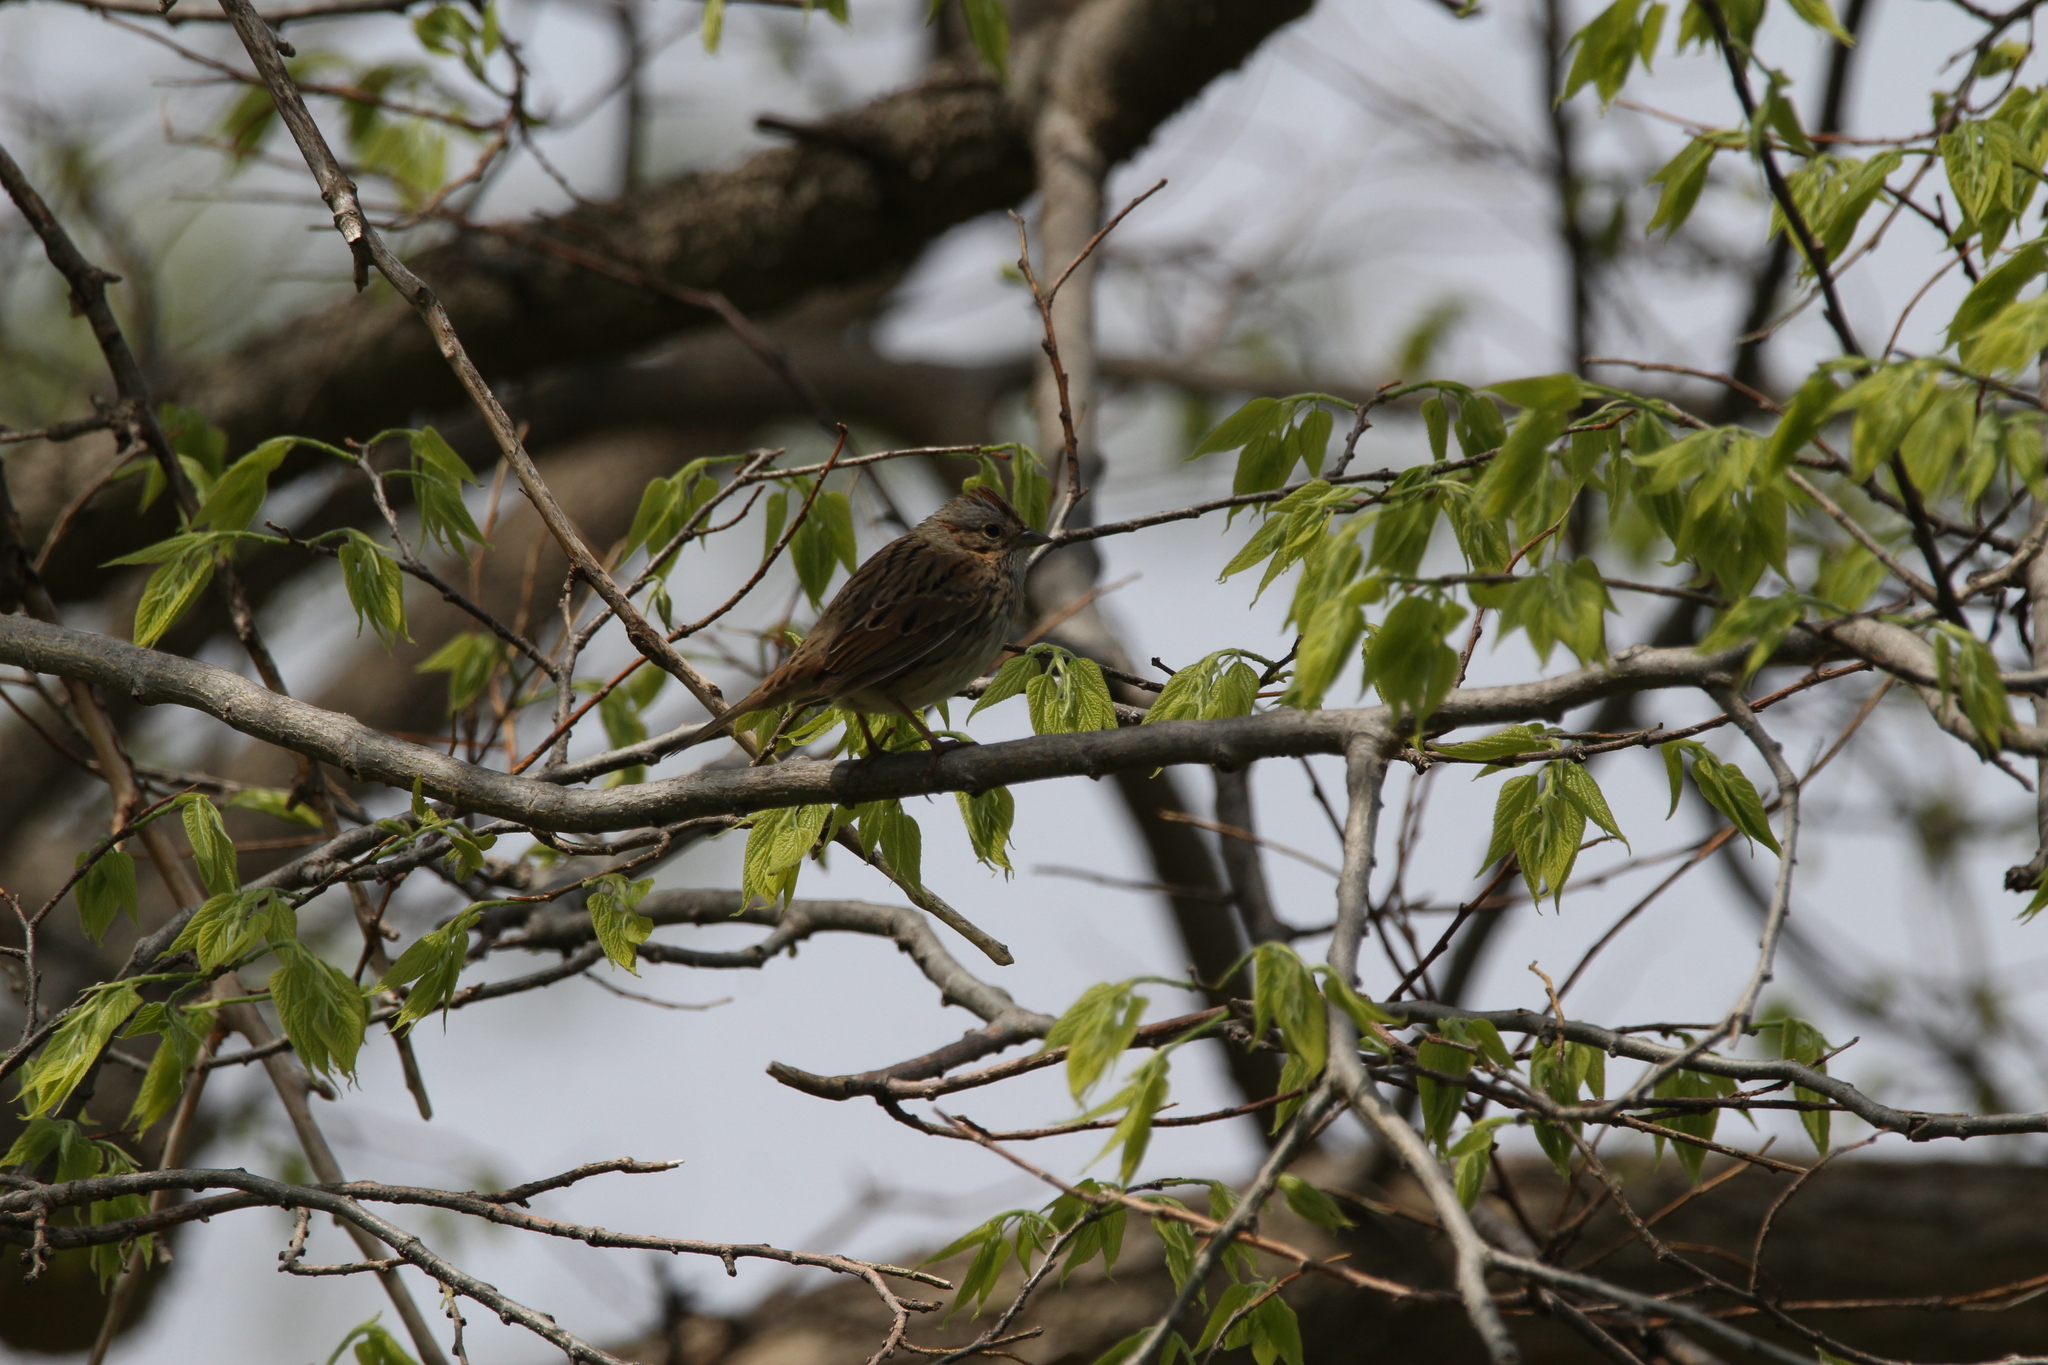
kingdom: Animalia
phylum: Chordata
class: Aves
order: Passeriformes
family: Passerellidae
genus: Melospiza
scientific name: Melospiza lincolnii
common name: Lincoln's sparrow
